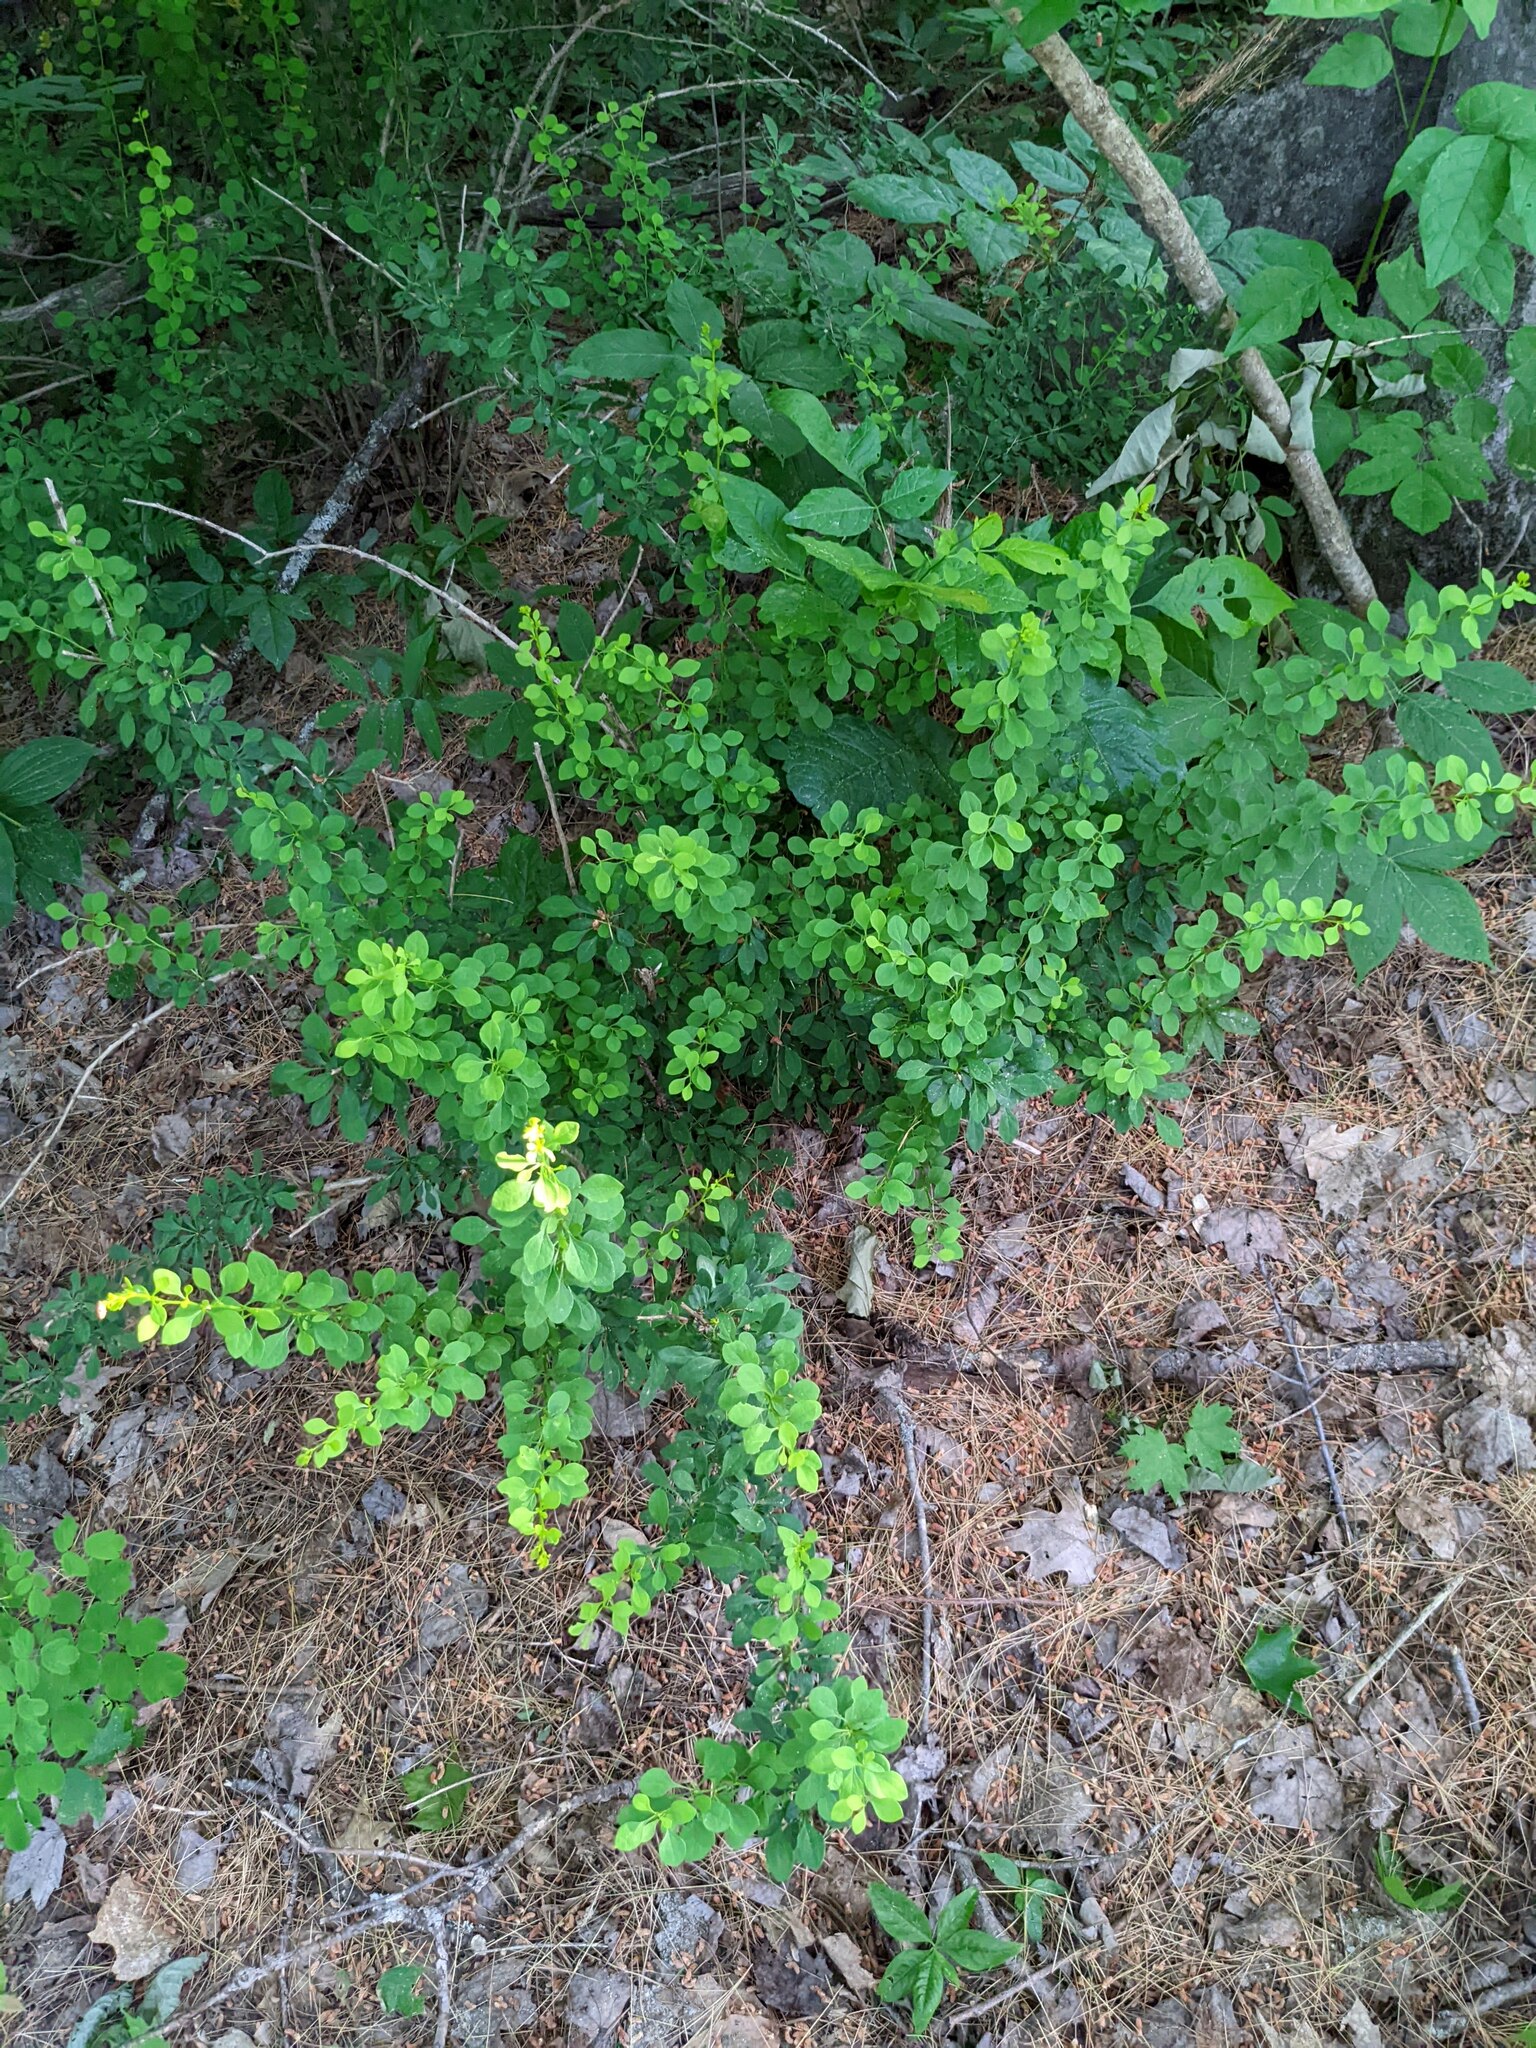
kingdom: Plantae
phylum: Tracheophyta
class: Magnoliopsida
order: Ranunculales
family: Berberidaceae
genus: Berberis
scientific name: Berberis thunbergii
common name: Japanese barberry
